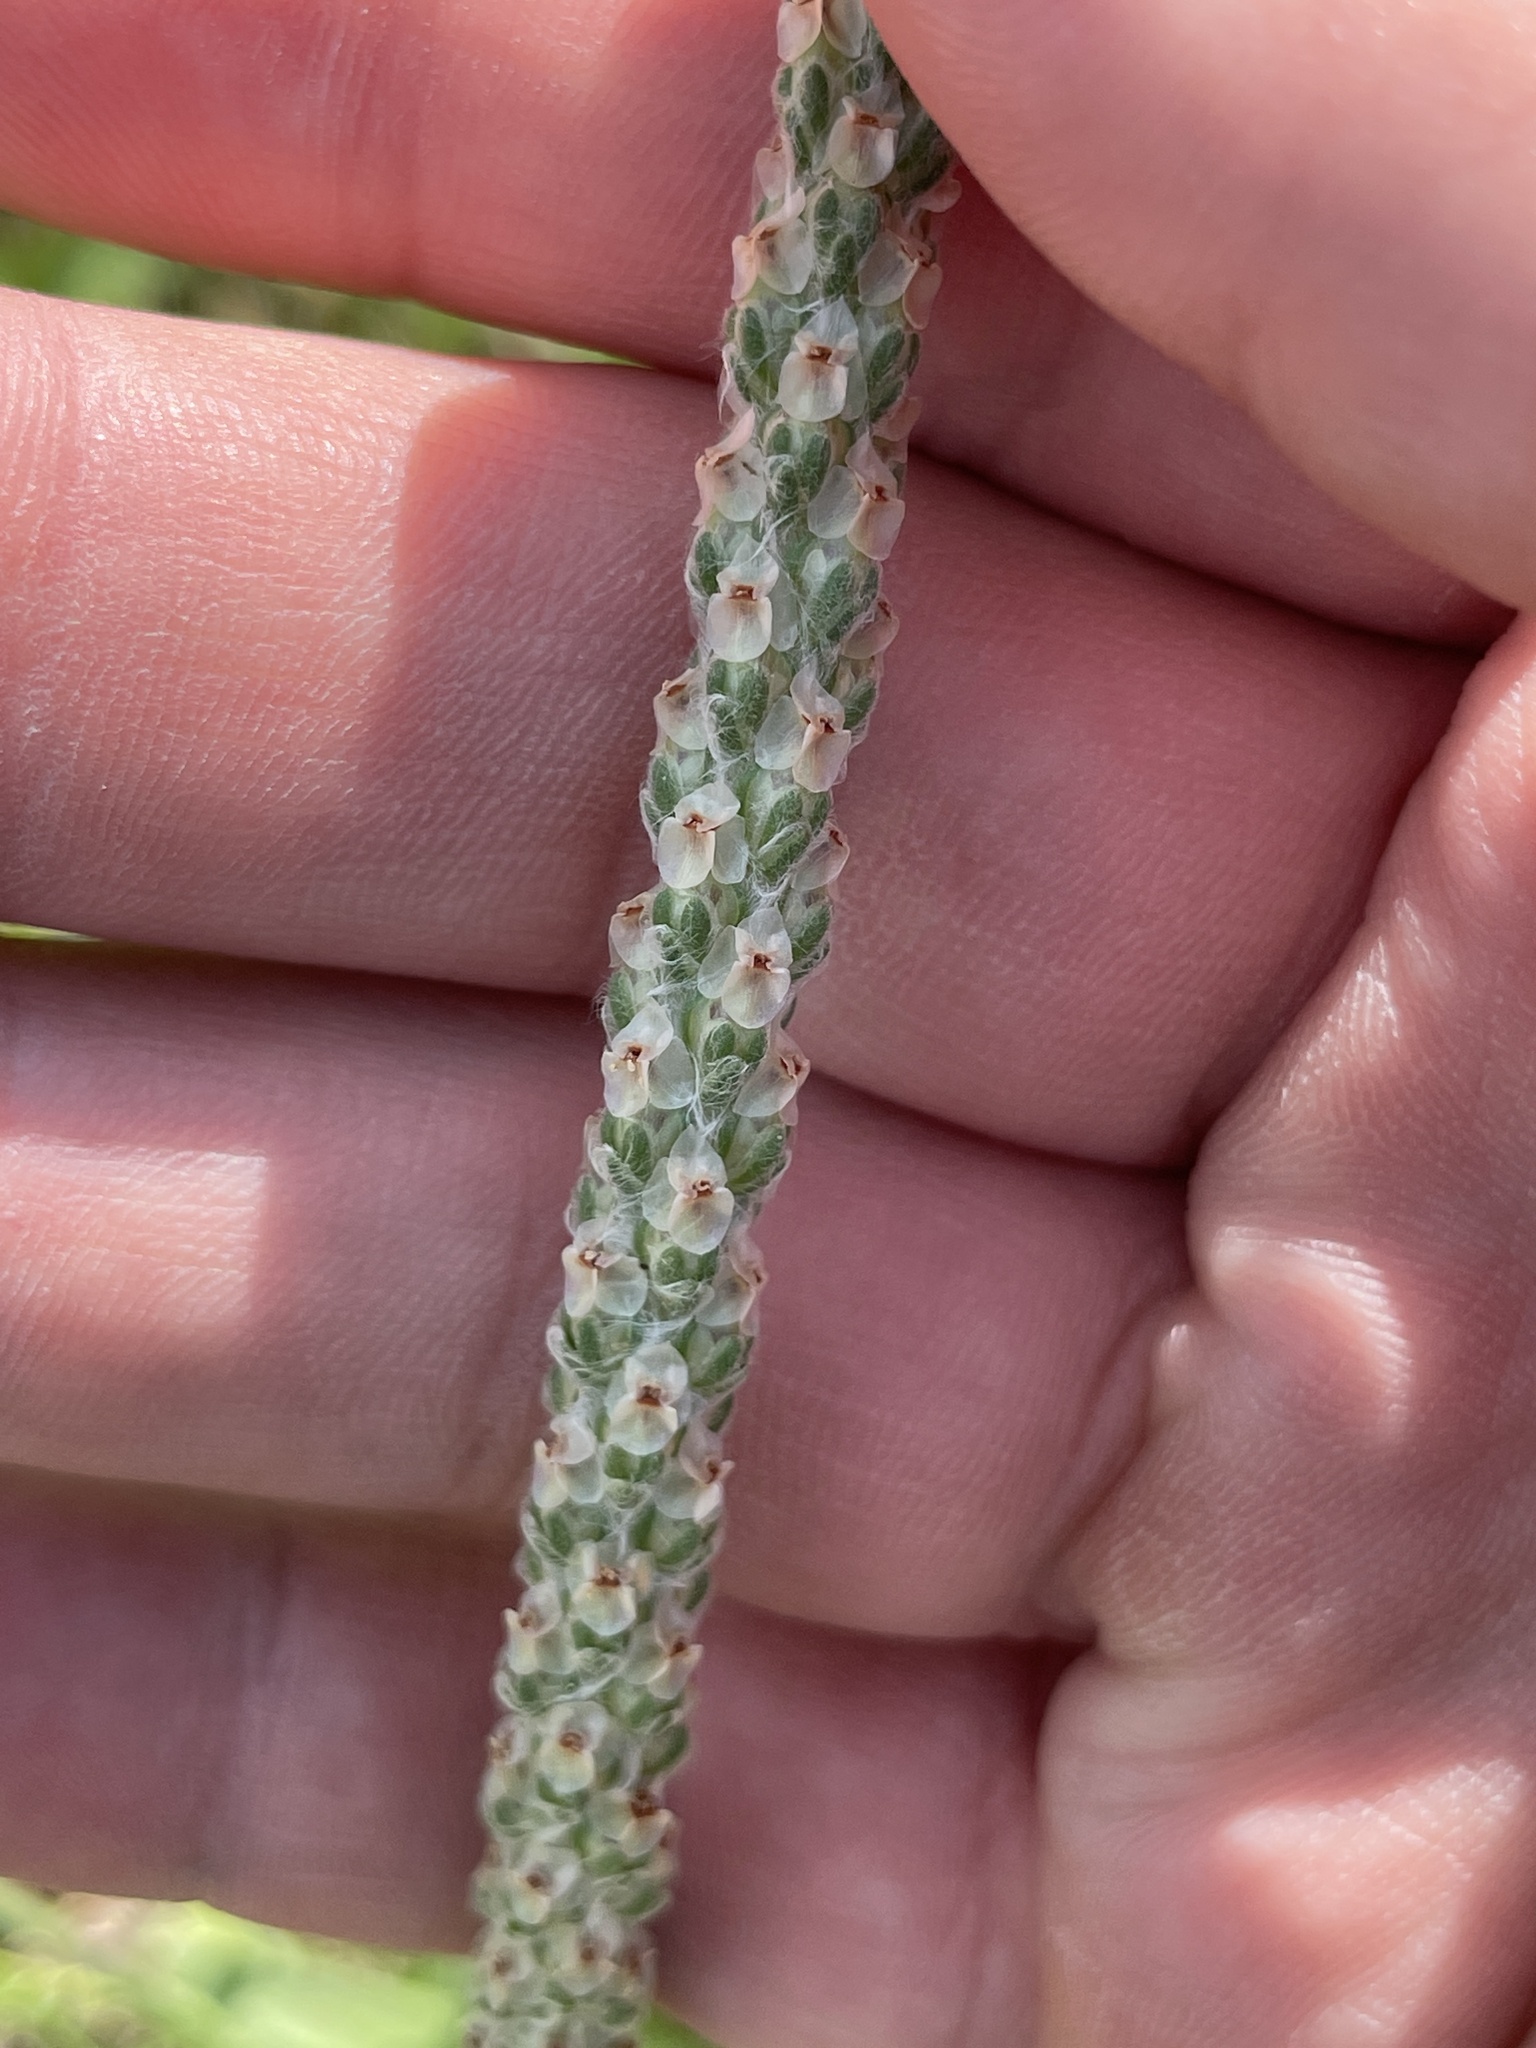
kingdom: Plantae
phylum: Tracheophyta
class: Magnoliopsida
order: Lamiales
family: Plantaginaceae
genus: Plantago
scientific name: Plantago wrightiana
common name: Wright's plantain
